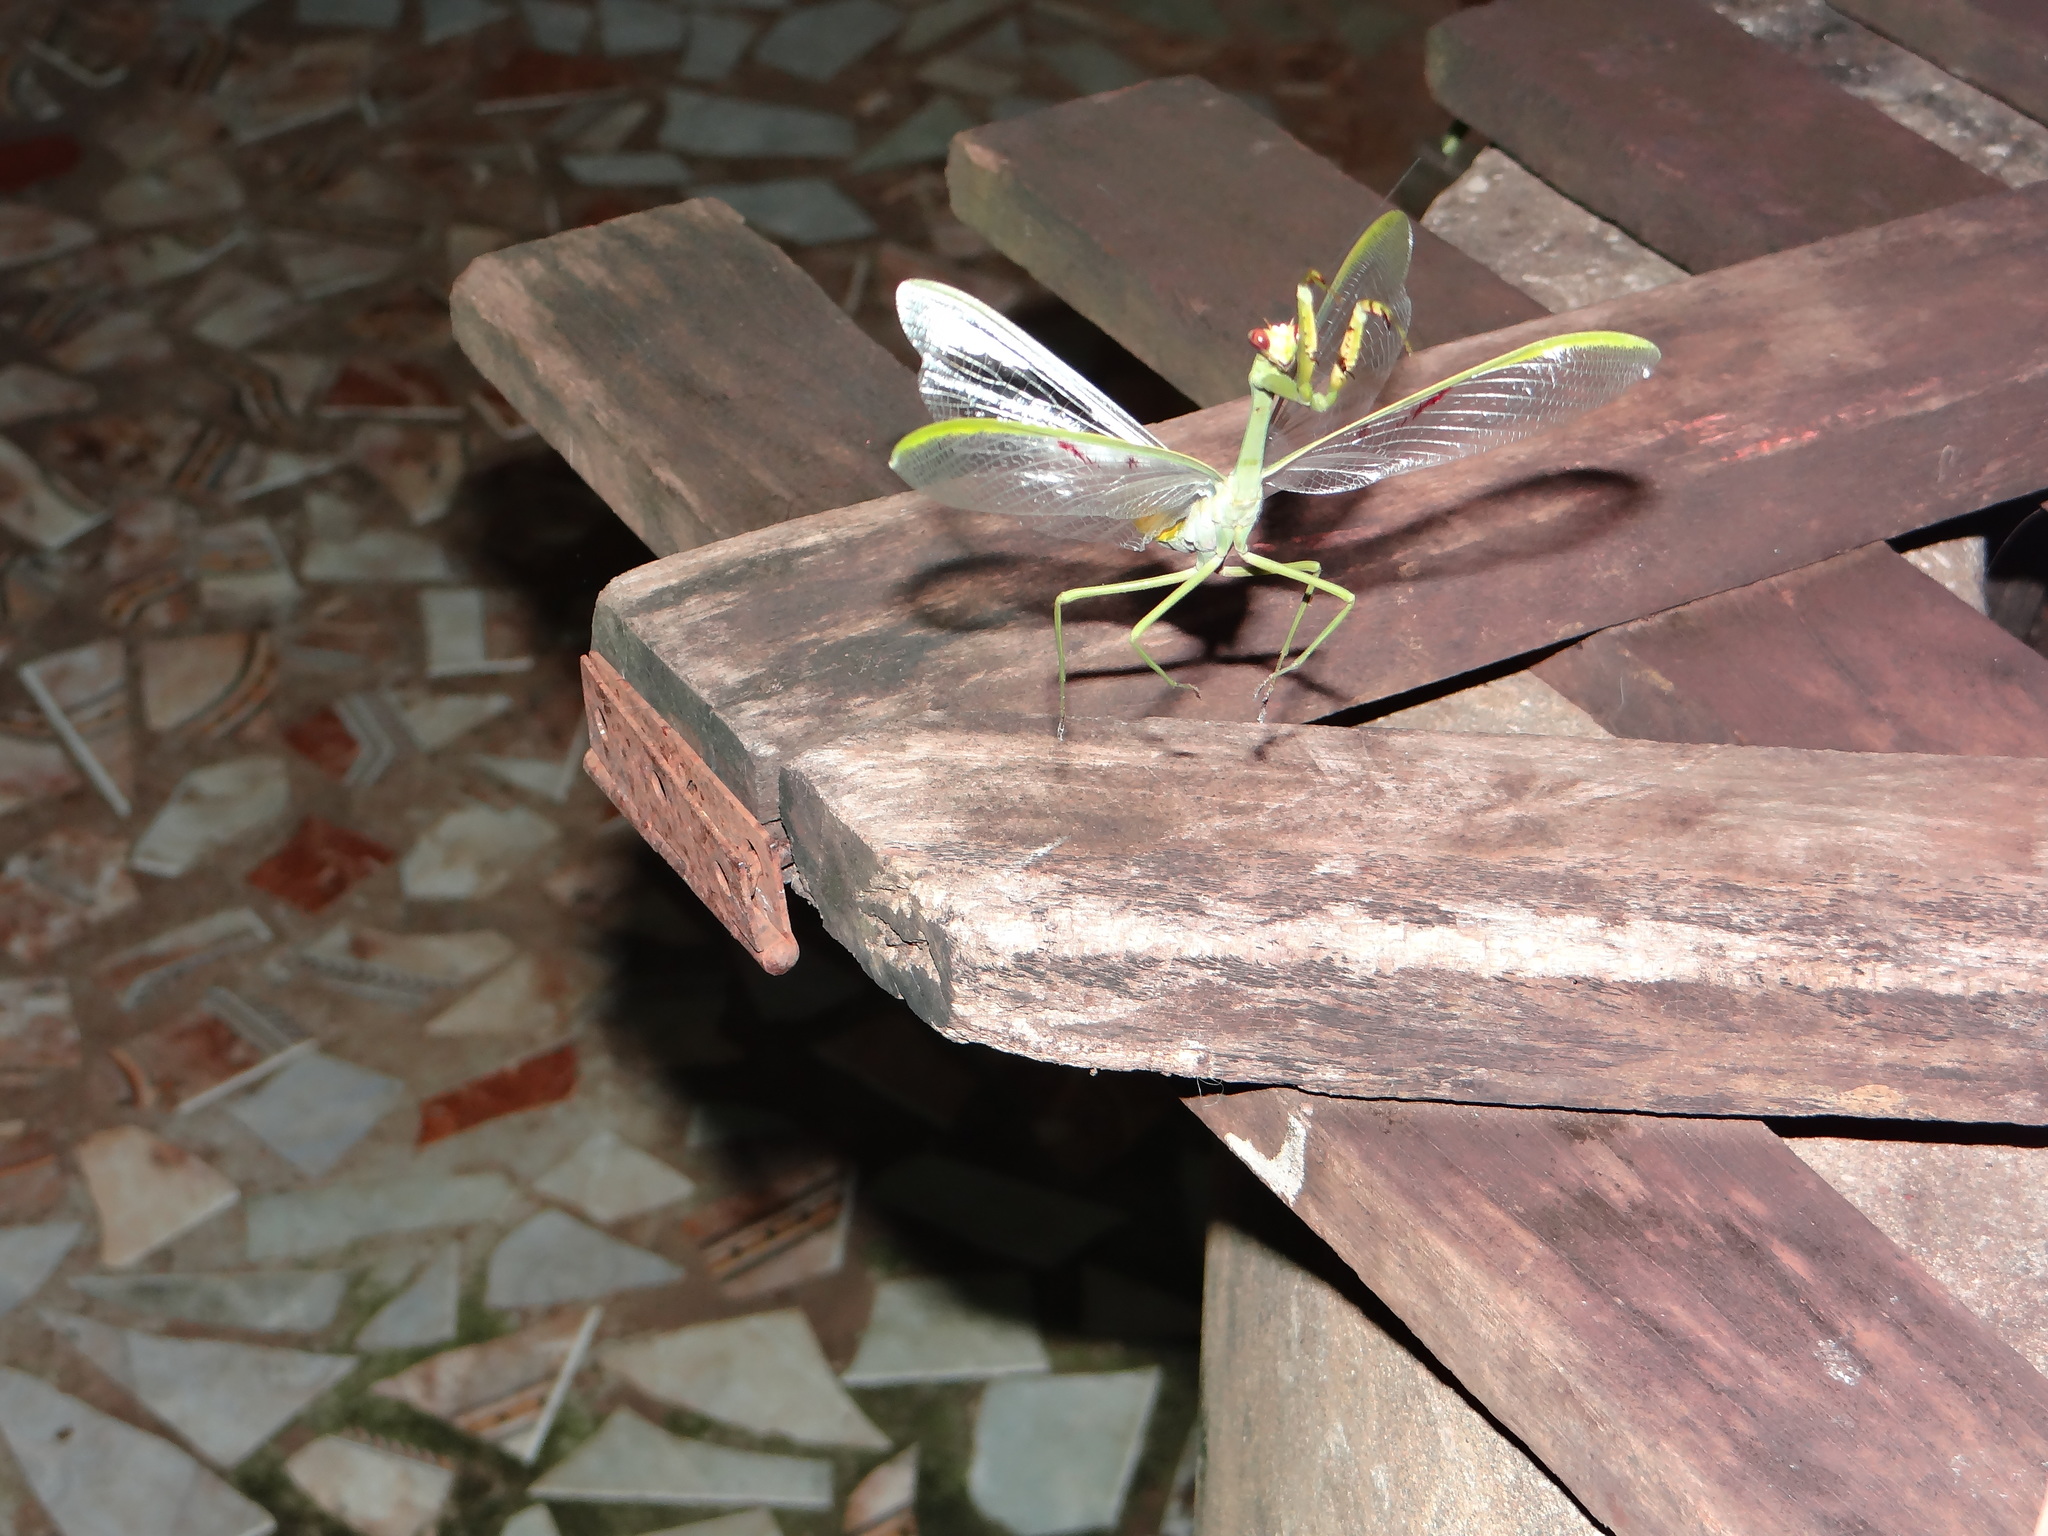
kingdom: Animalia
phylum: Arthropoda
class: Insecta
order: Mantodea
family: Mantidae
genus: Stagmatoptera
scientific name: Stagmatoptera supplicaria
